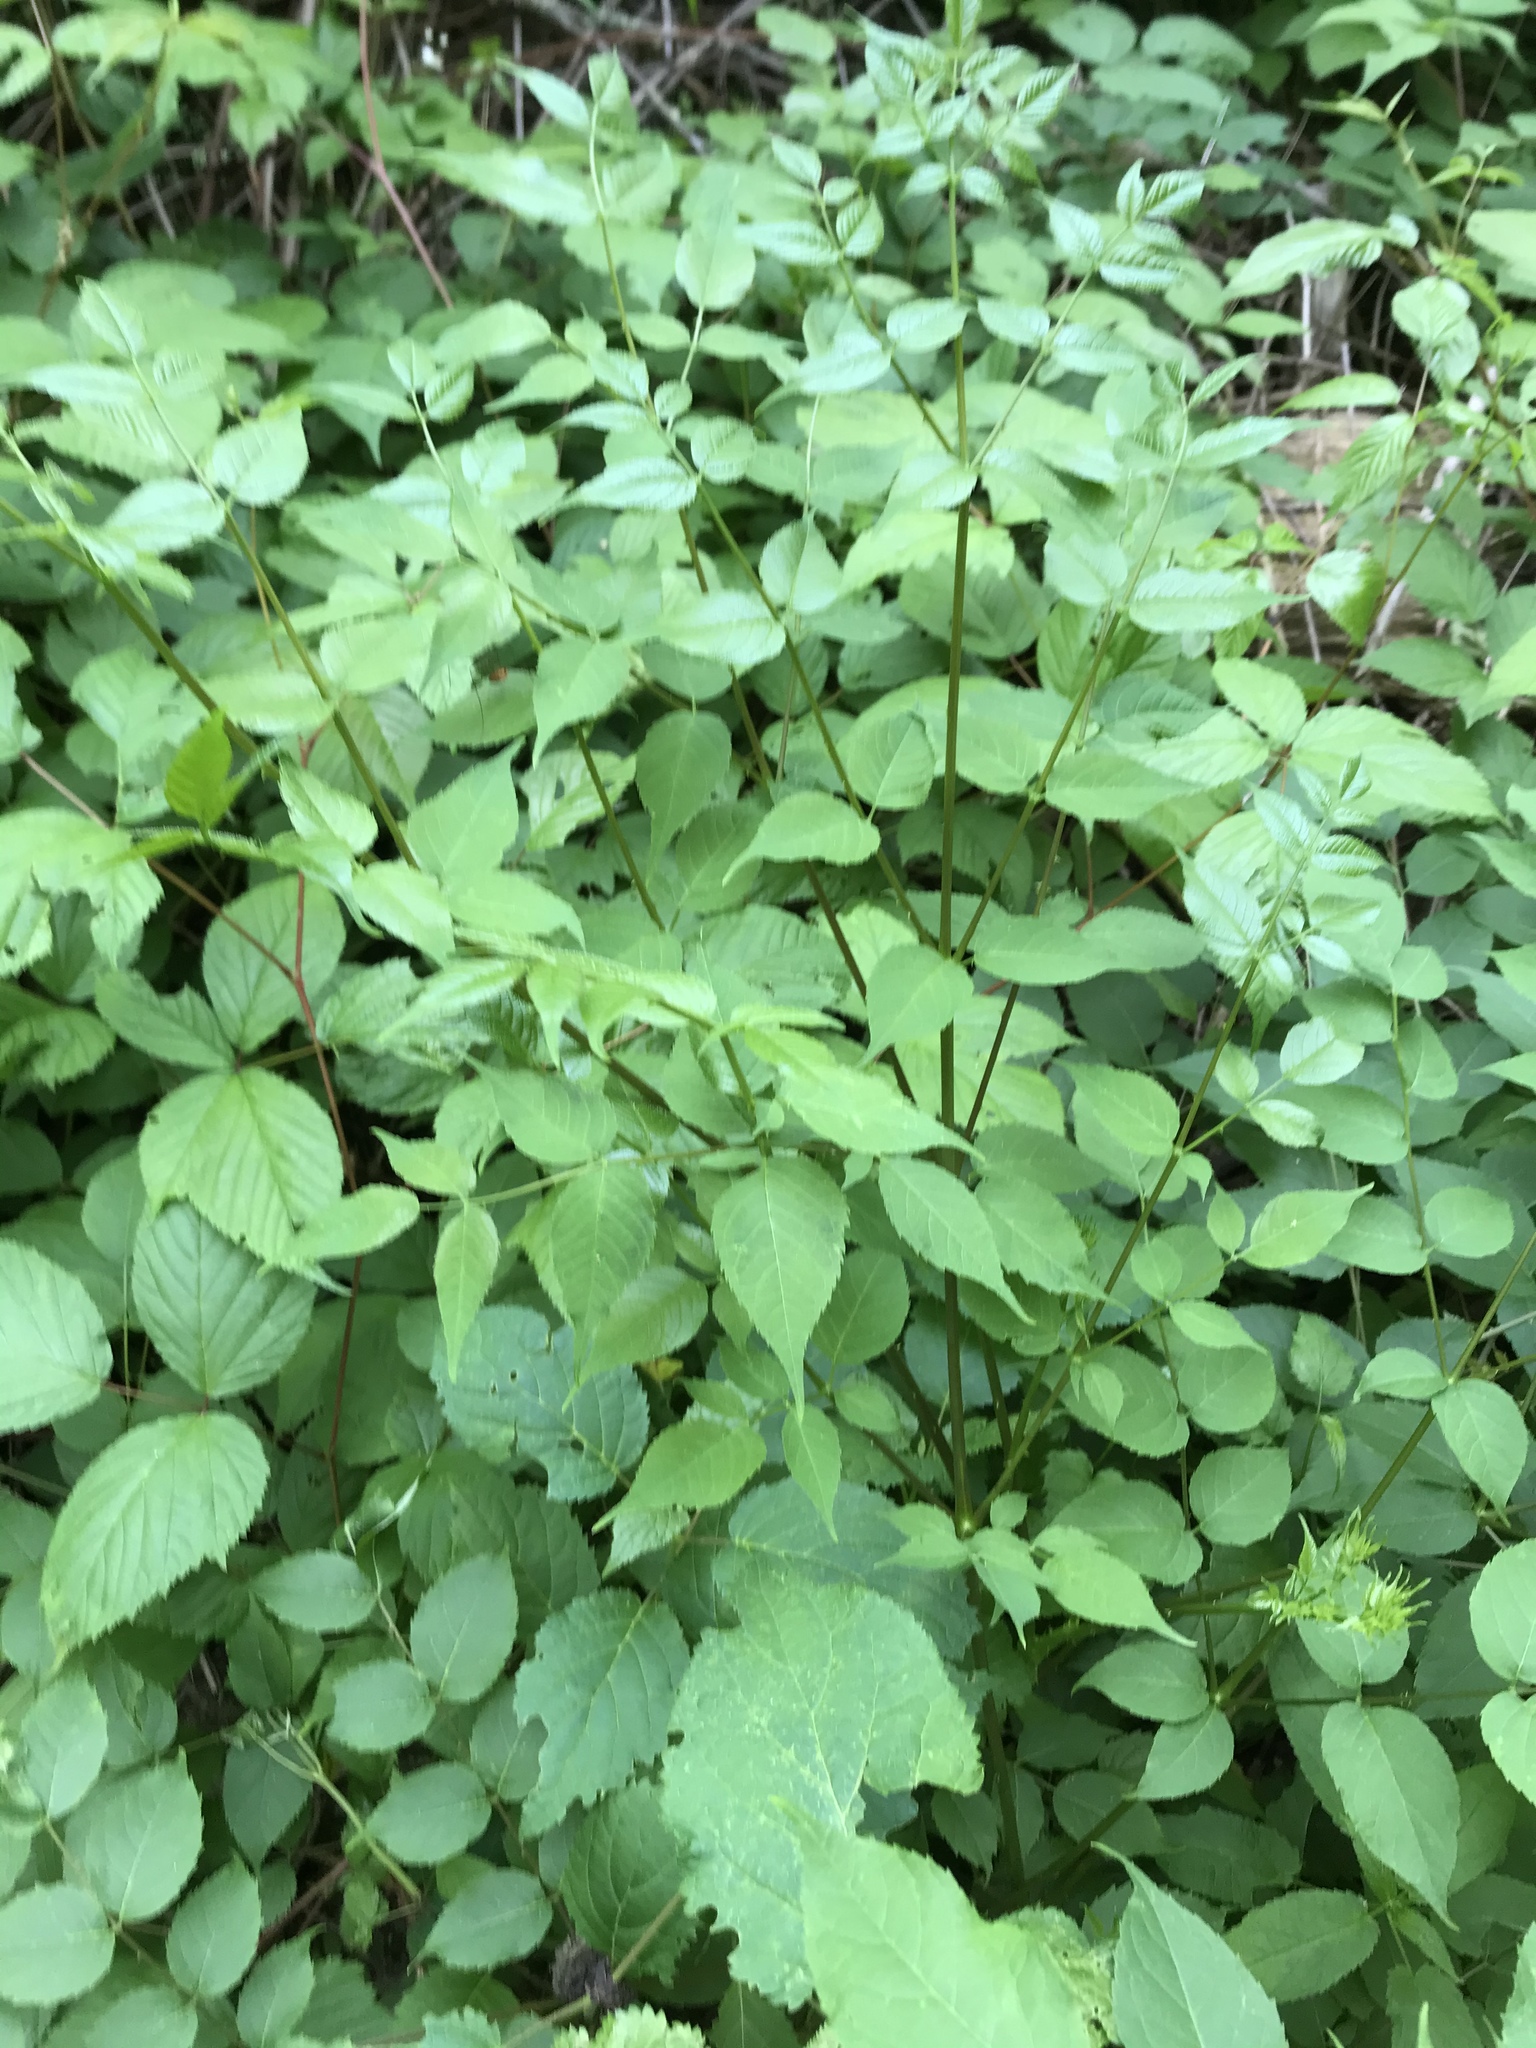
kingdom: Plantae
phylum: Tracheophyta
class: Magnoliopsida
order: Apiales
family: Araliaceae
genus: Aralia
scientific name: Aralia spinosa
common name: Hercules'-club
